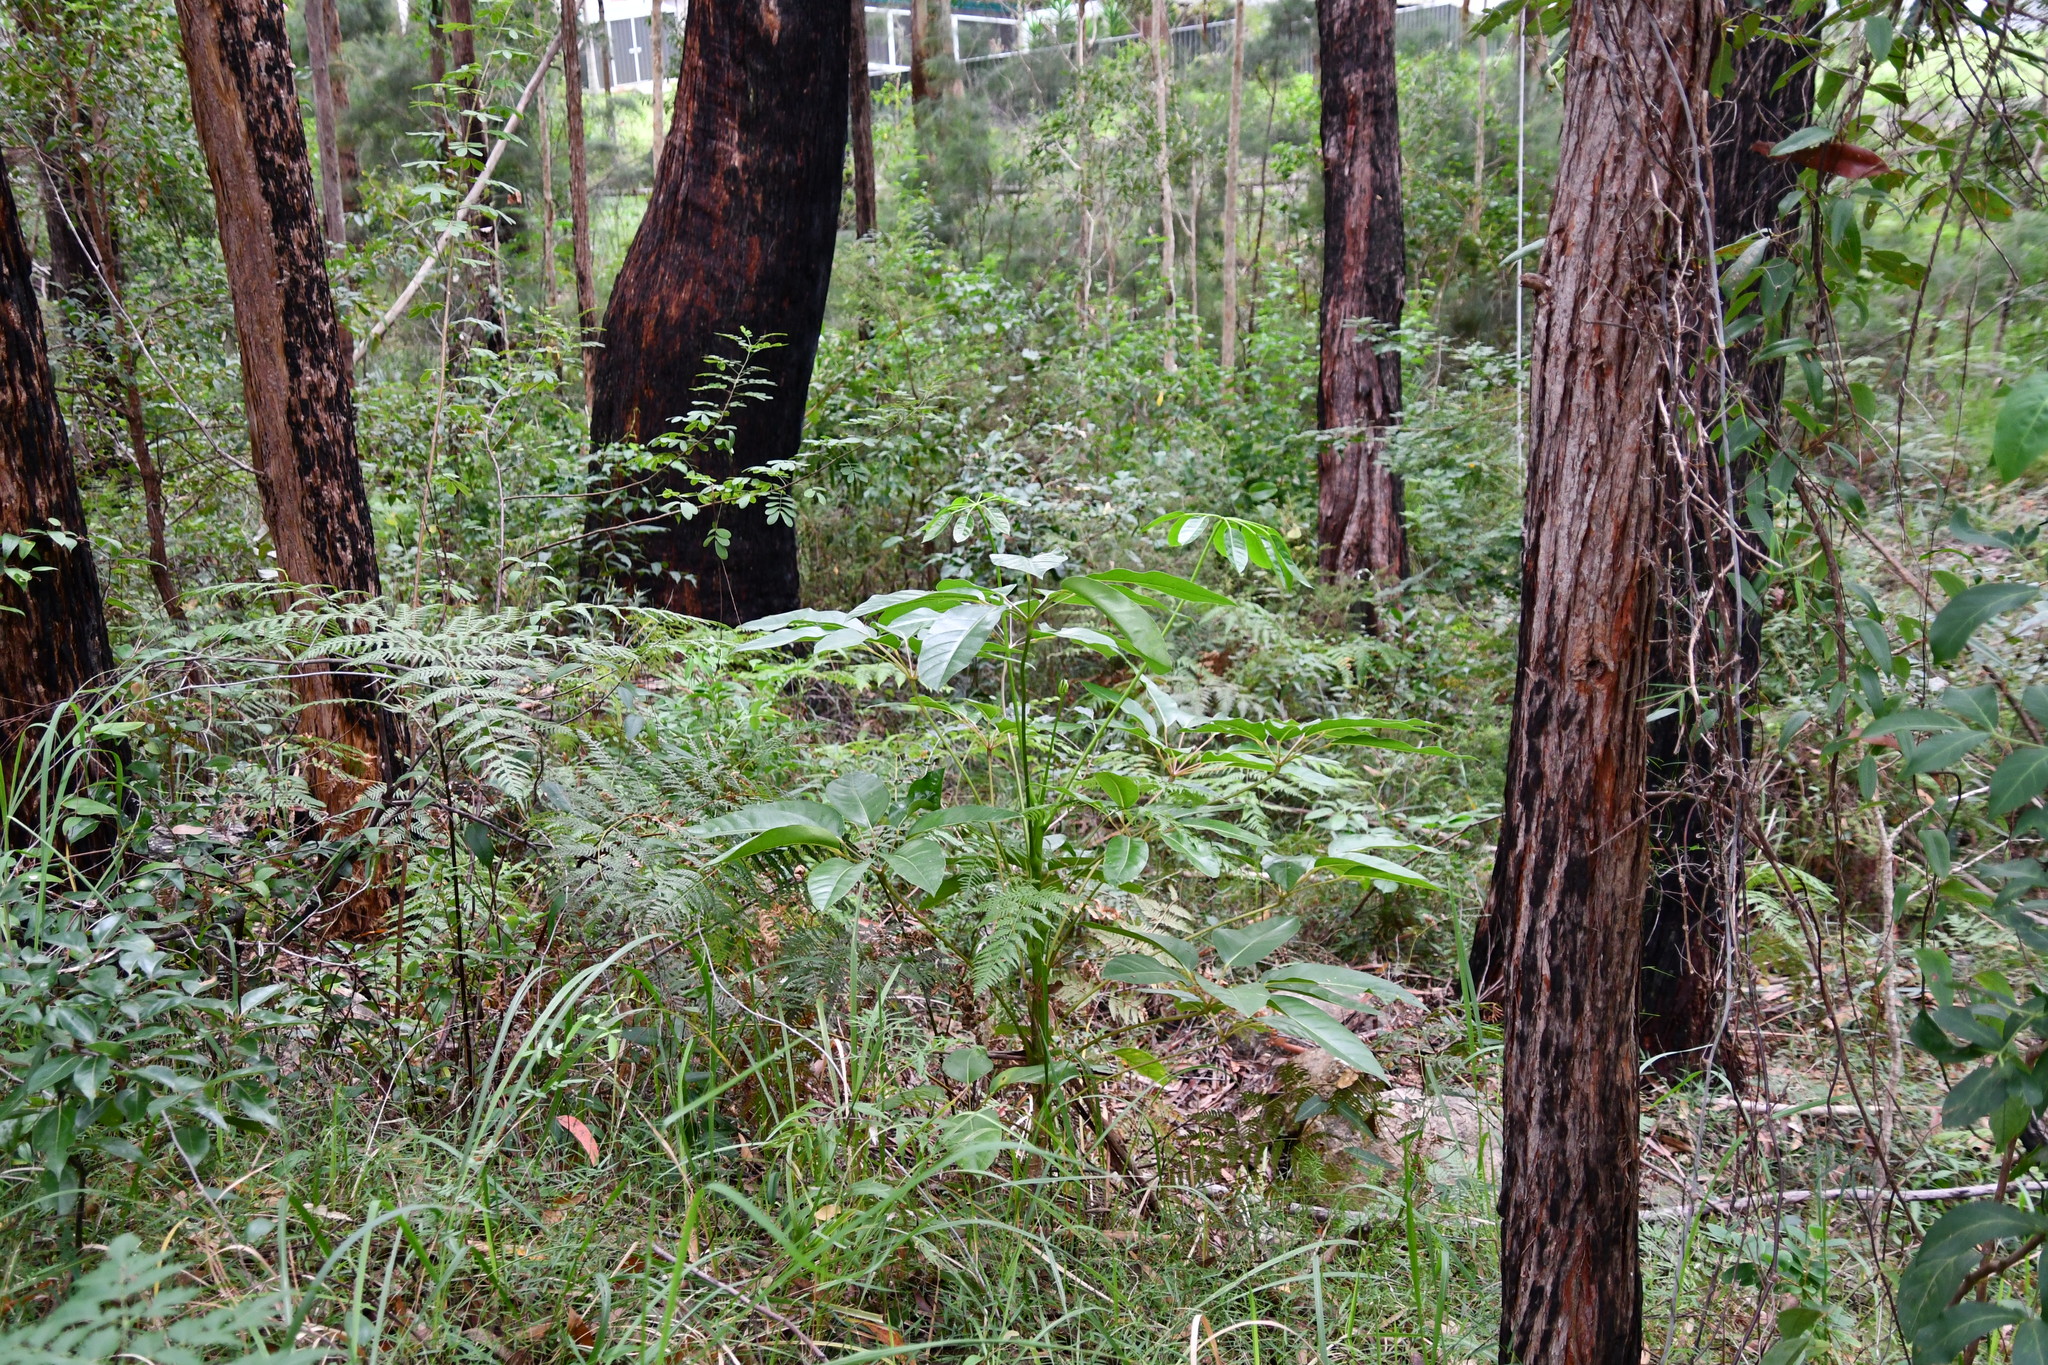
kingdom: Plantae
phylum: Tracheophyta
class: Magnoliopsida
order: Apiales
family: Araliaceae
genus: Heptapleurum
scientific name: Heptapleurum actinophyllum
